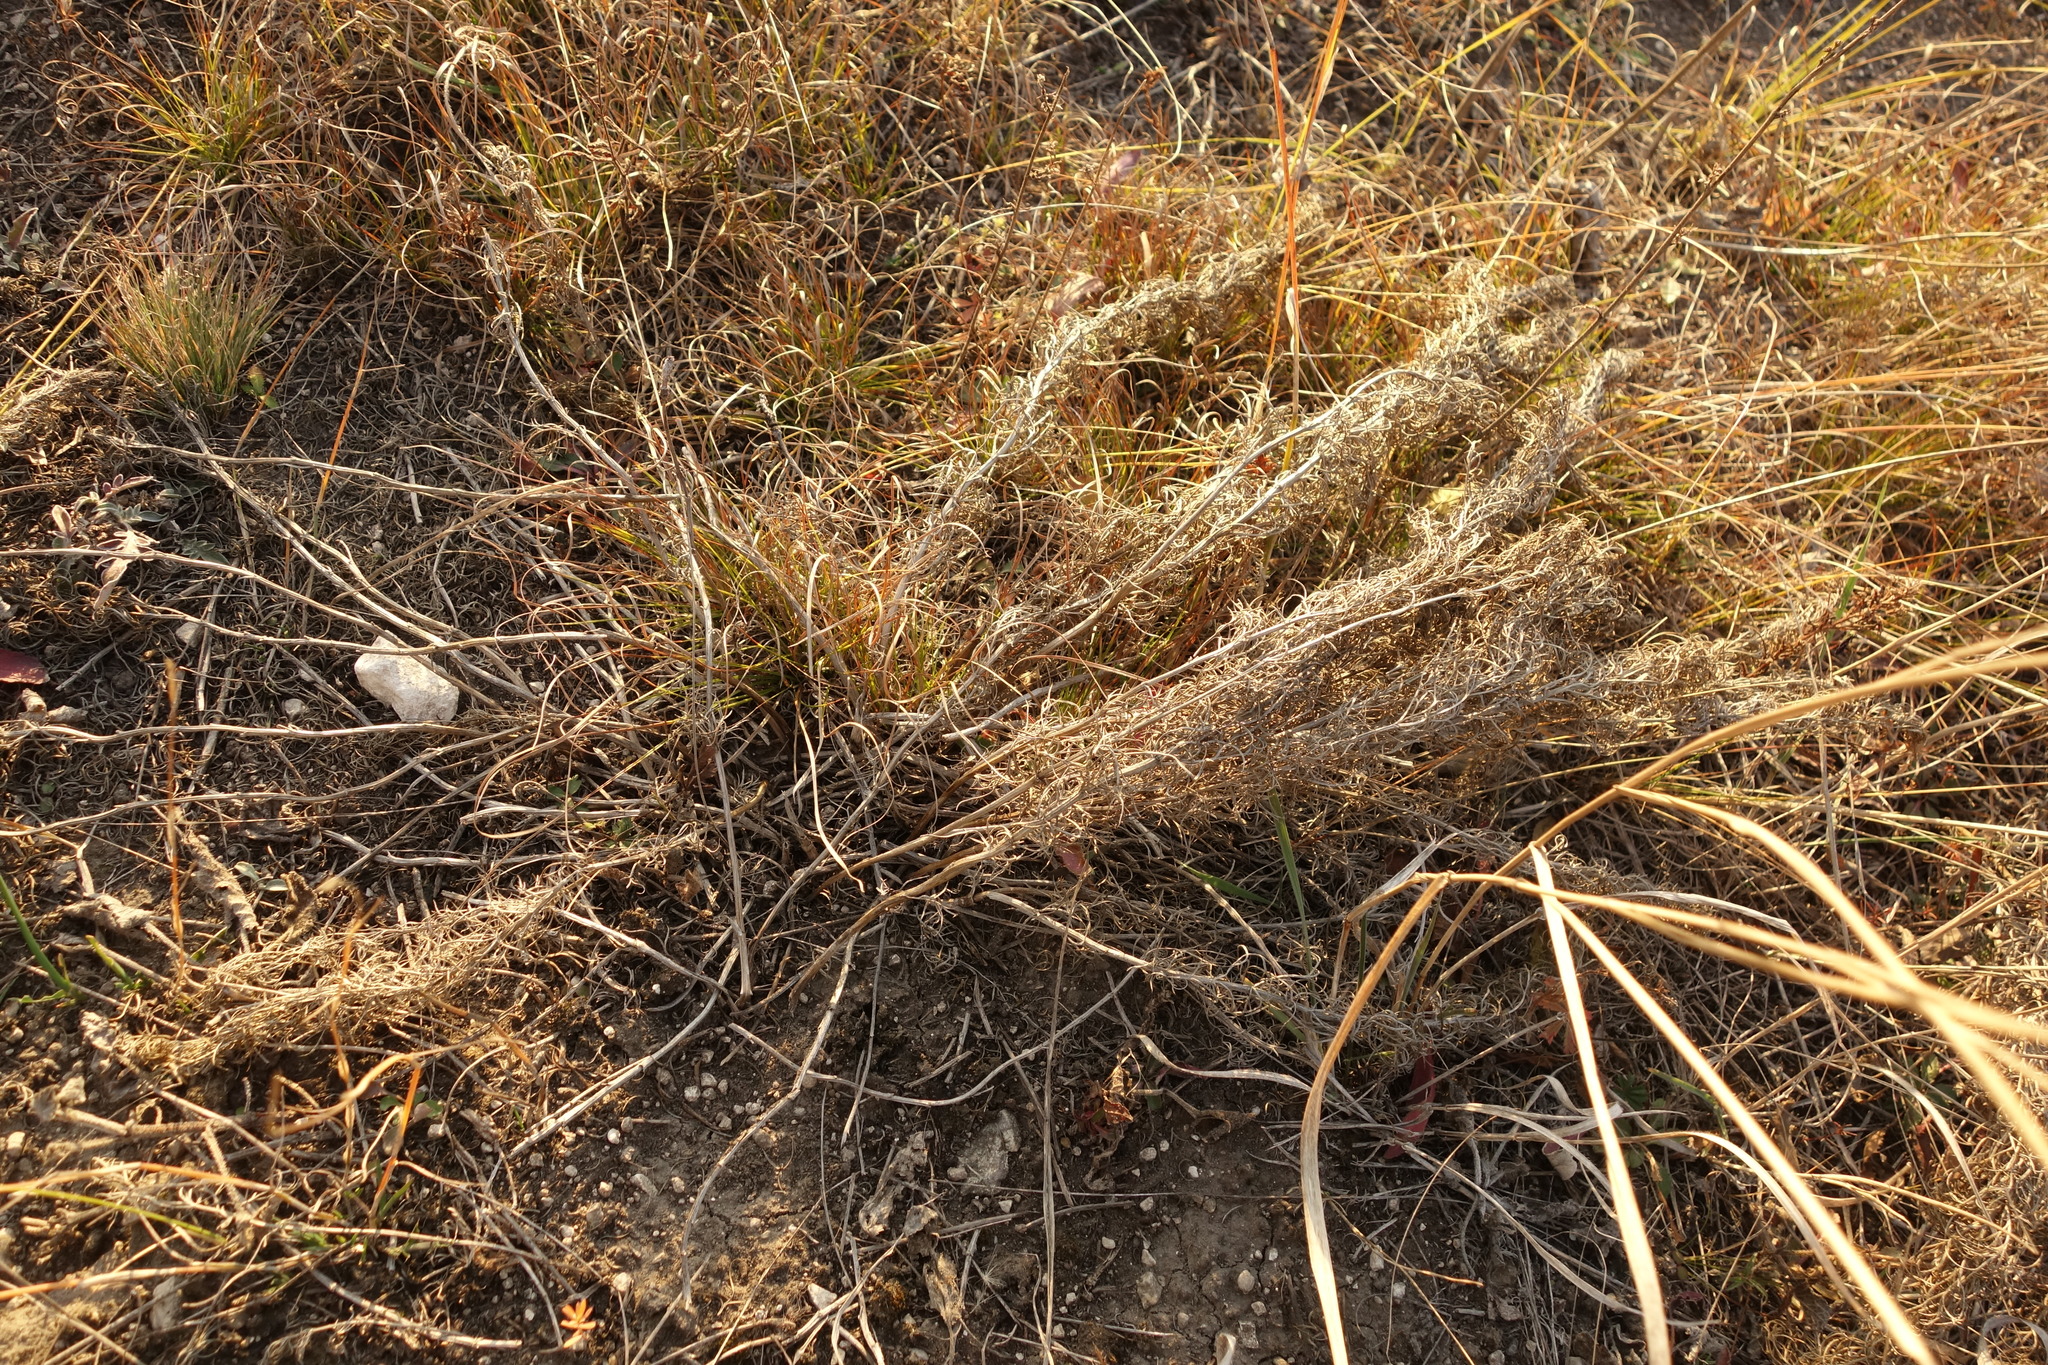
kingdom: Plantae
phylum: Tracheophyta
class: Magnoliopsida
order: Ranunculales
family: Ranunculaceae
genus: Adonis
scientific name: Adonis vernalis
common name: Yellow pheasants-eye
